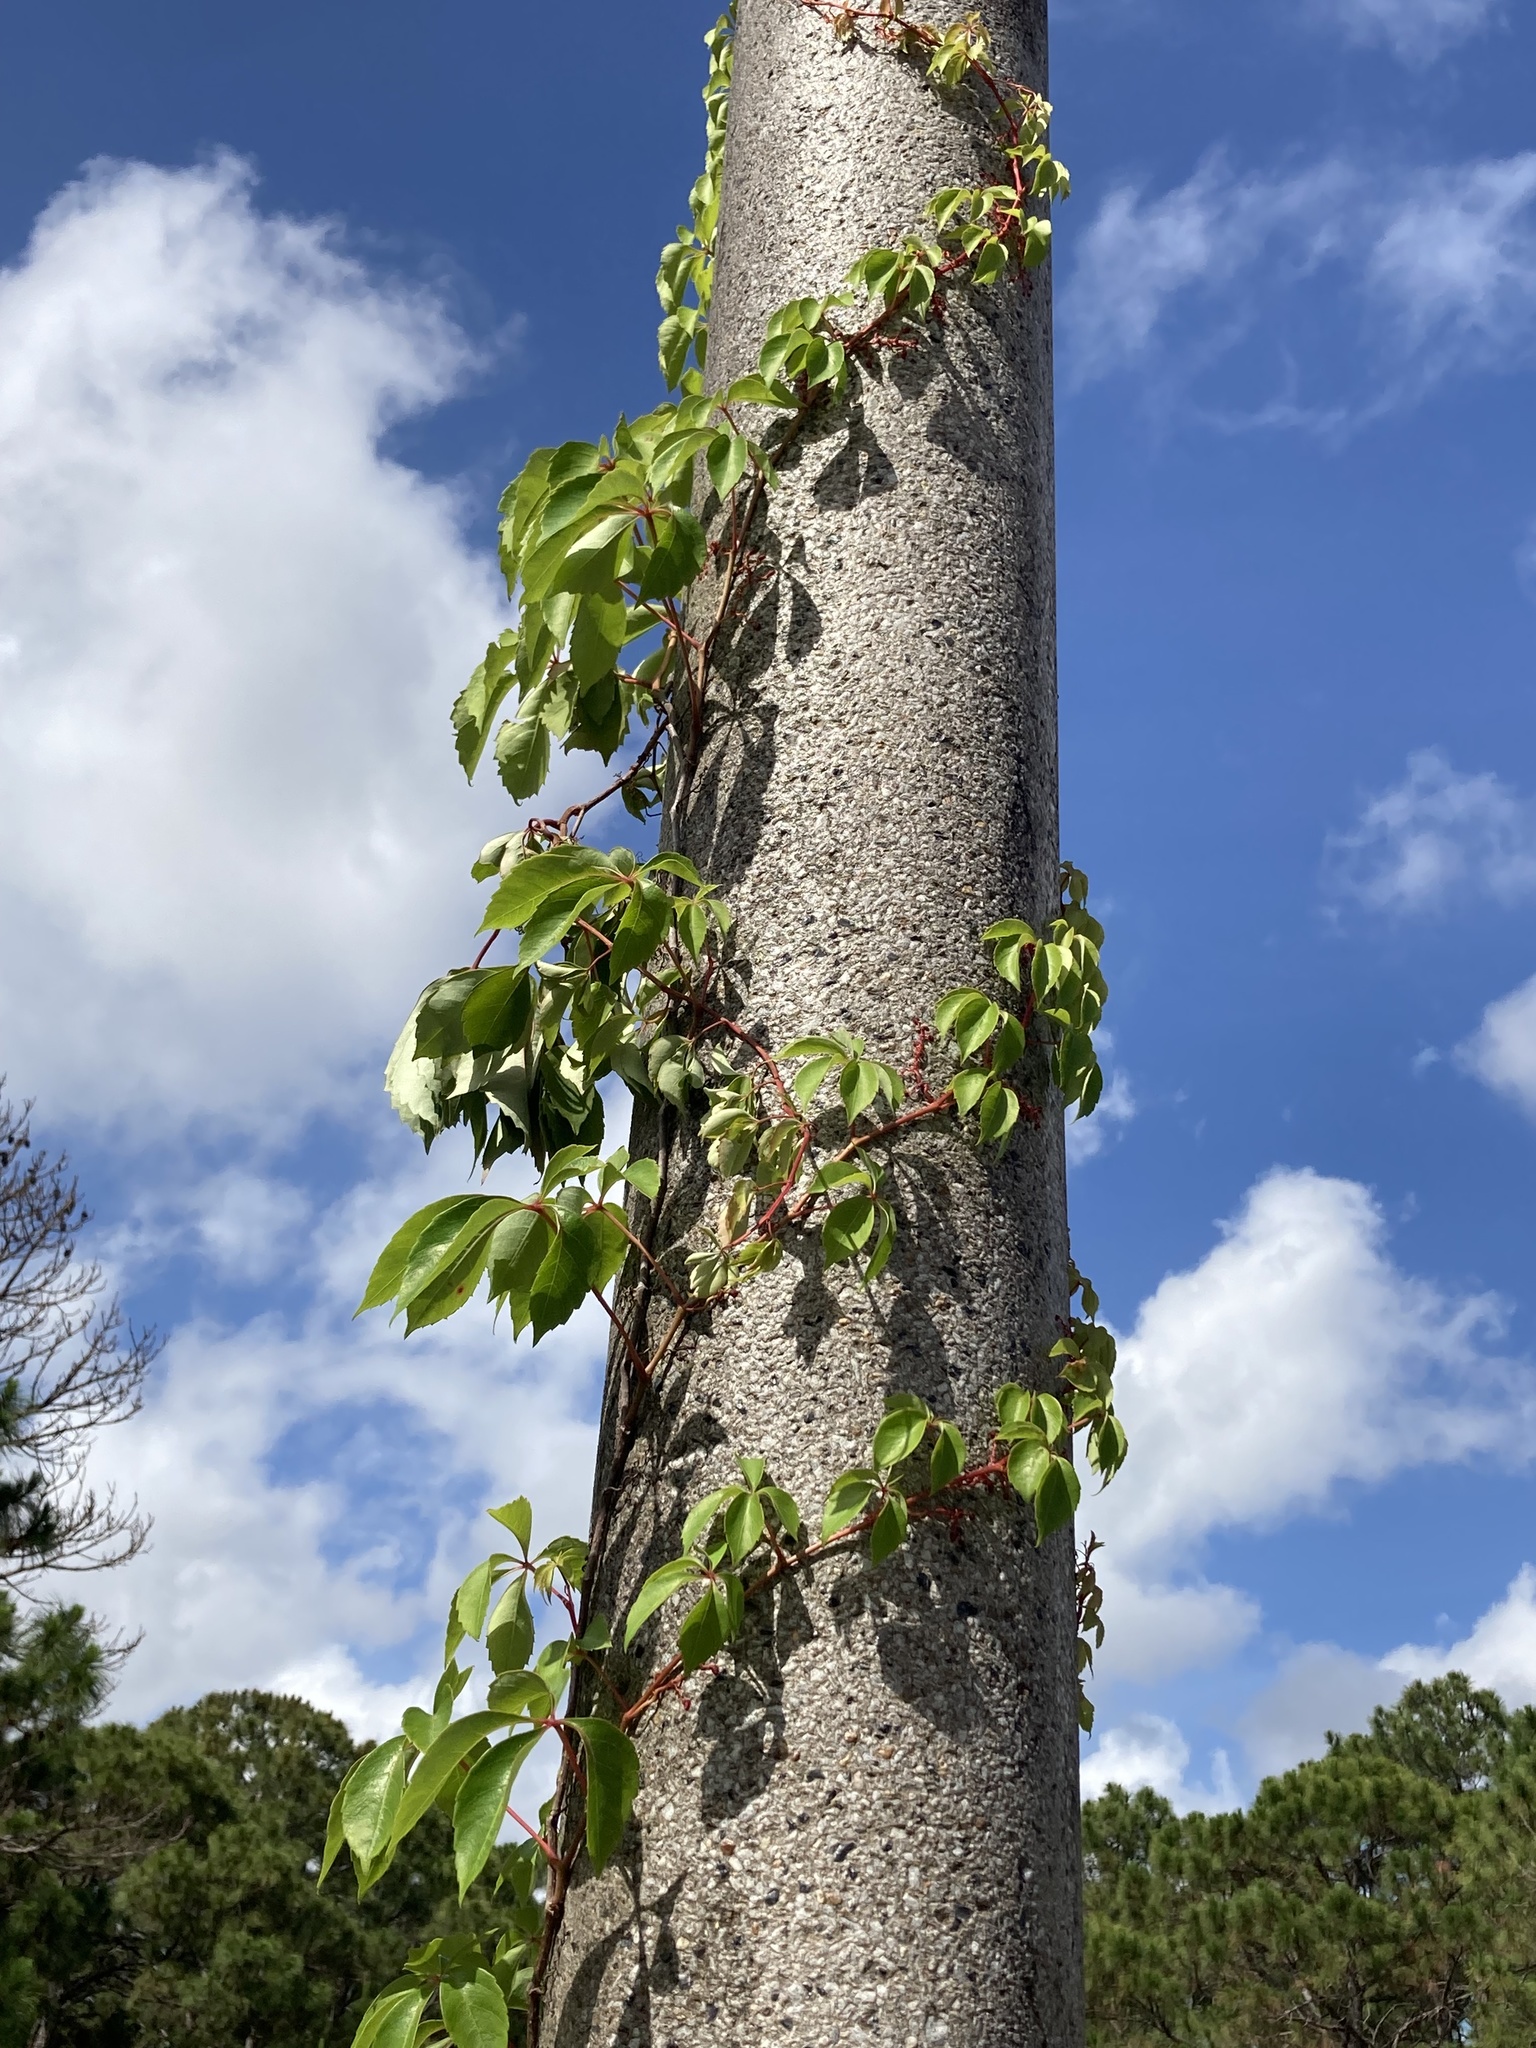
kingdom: Plantae
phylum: Tracheophyta
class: Magnoliopsida
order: Vitales
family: Vitaceae
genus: Parthenocissus
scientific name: Parthenocissus quinquefolia
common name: Virginia-creeper
